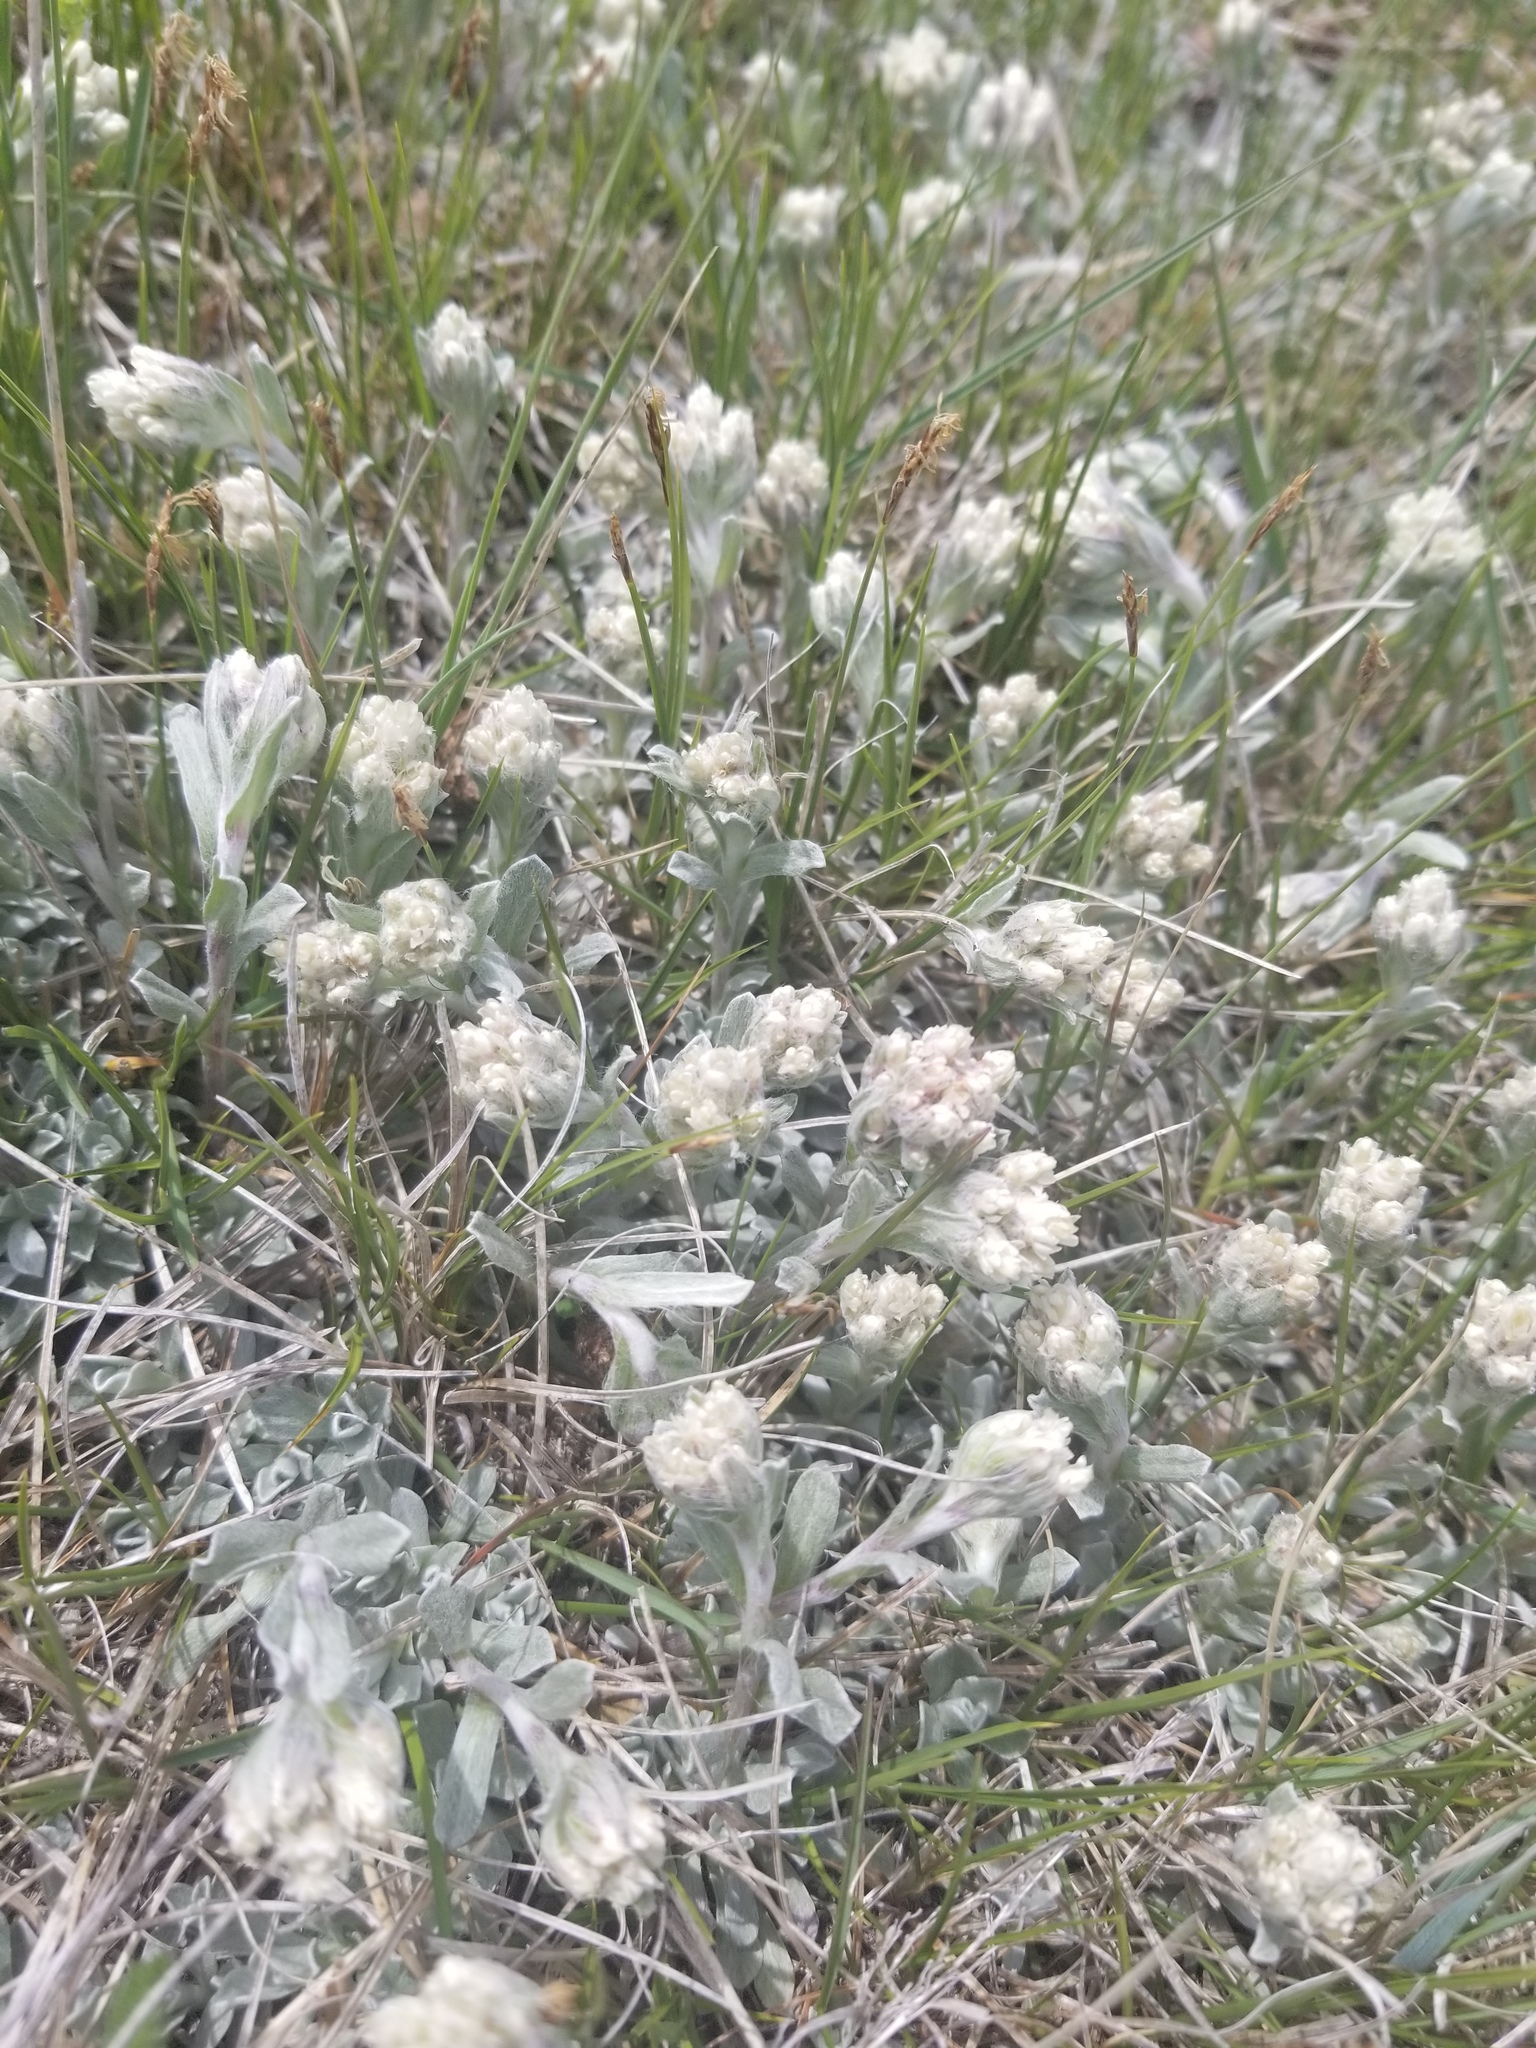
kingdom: Plantae
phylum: Tracheophyta
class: Magnoliopsida
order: Asterales
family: Asteraceae
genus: Antennaria
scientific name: Antennaria parvifolia
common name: Nuttall's pussytoes
